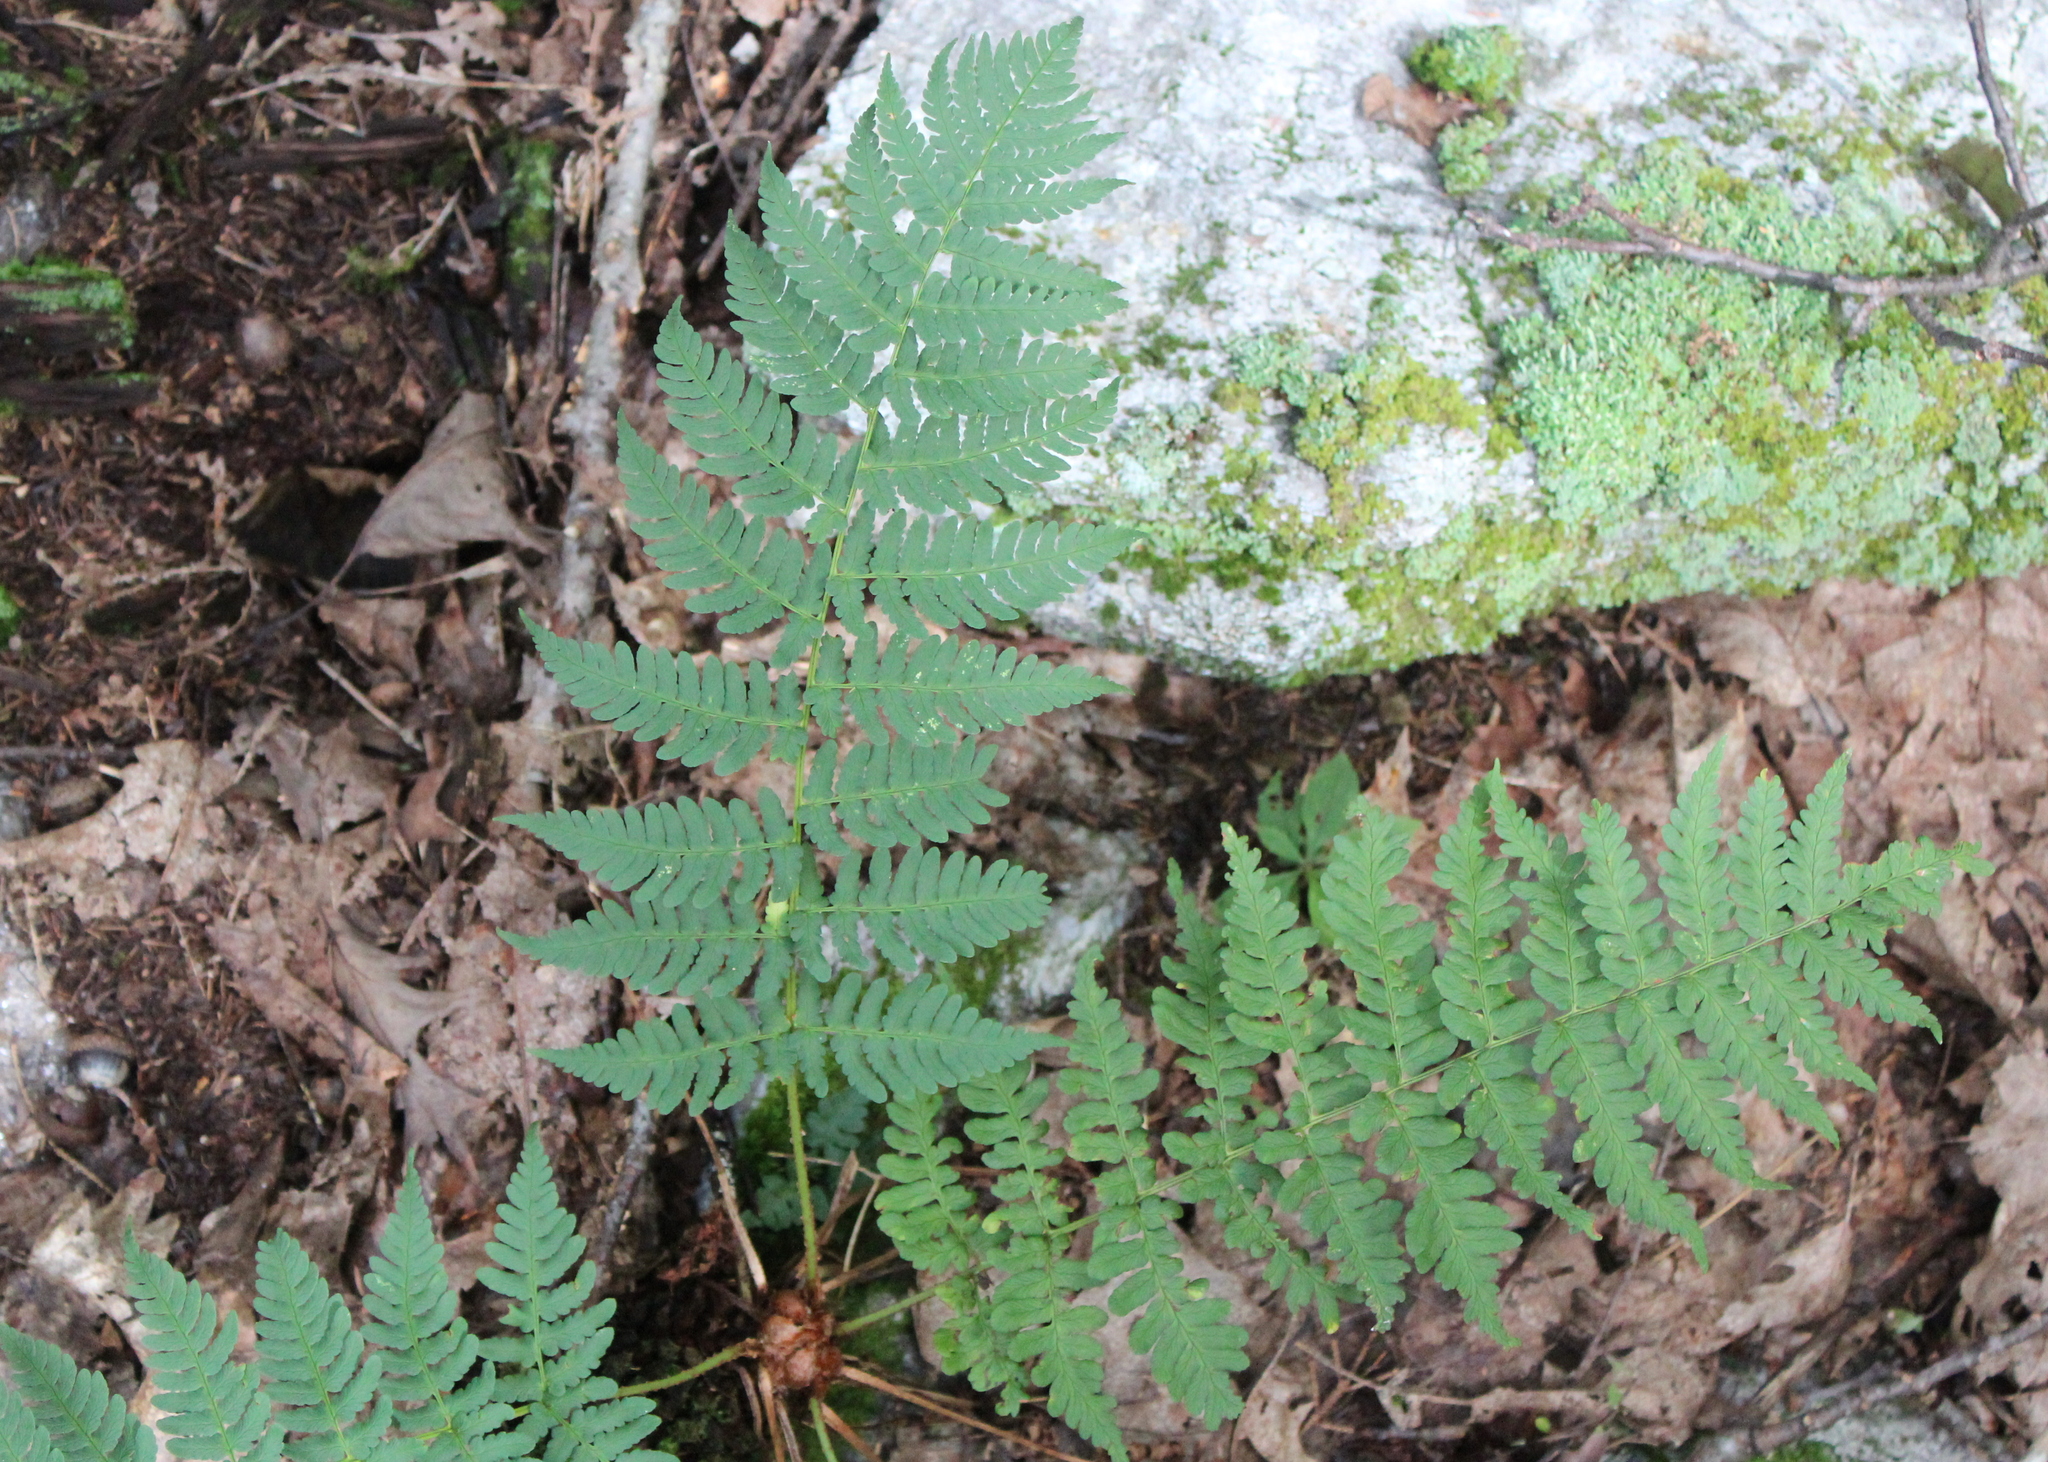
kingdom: Plantae
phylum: Tracheophyta
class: Polypodiopsida
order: Polypodiales
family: Dryopteridaceae
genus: Dryopteris
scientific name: Dryopteris marginalis
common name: Marginal wood fern
